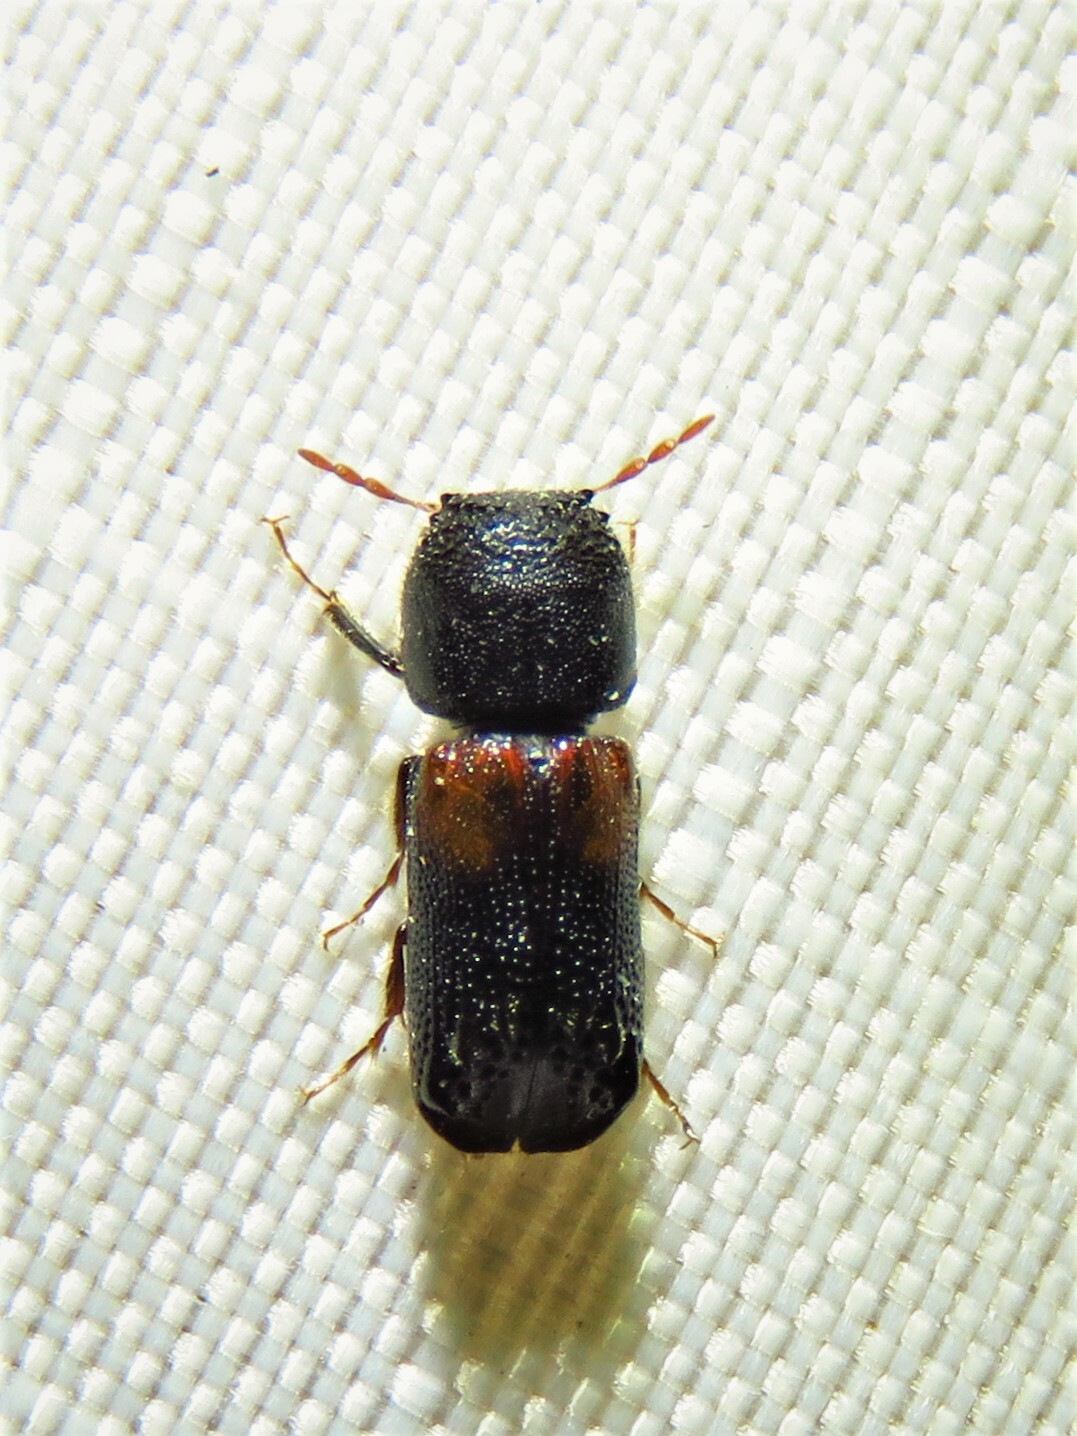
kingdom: Animalia
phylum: Arthropoda
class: Insecta
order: Coleoptera
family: Bostrichidae
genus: Xylobiops
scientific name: Xylobiops basilaris
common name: Red-shouldered bostrichid
